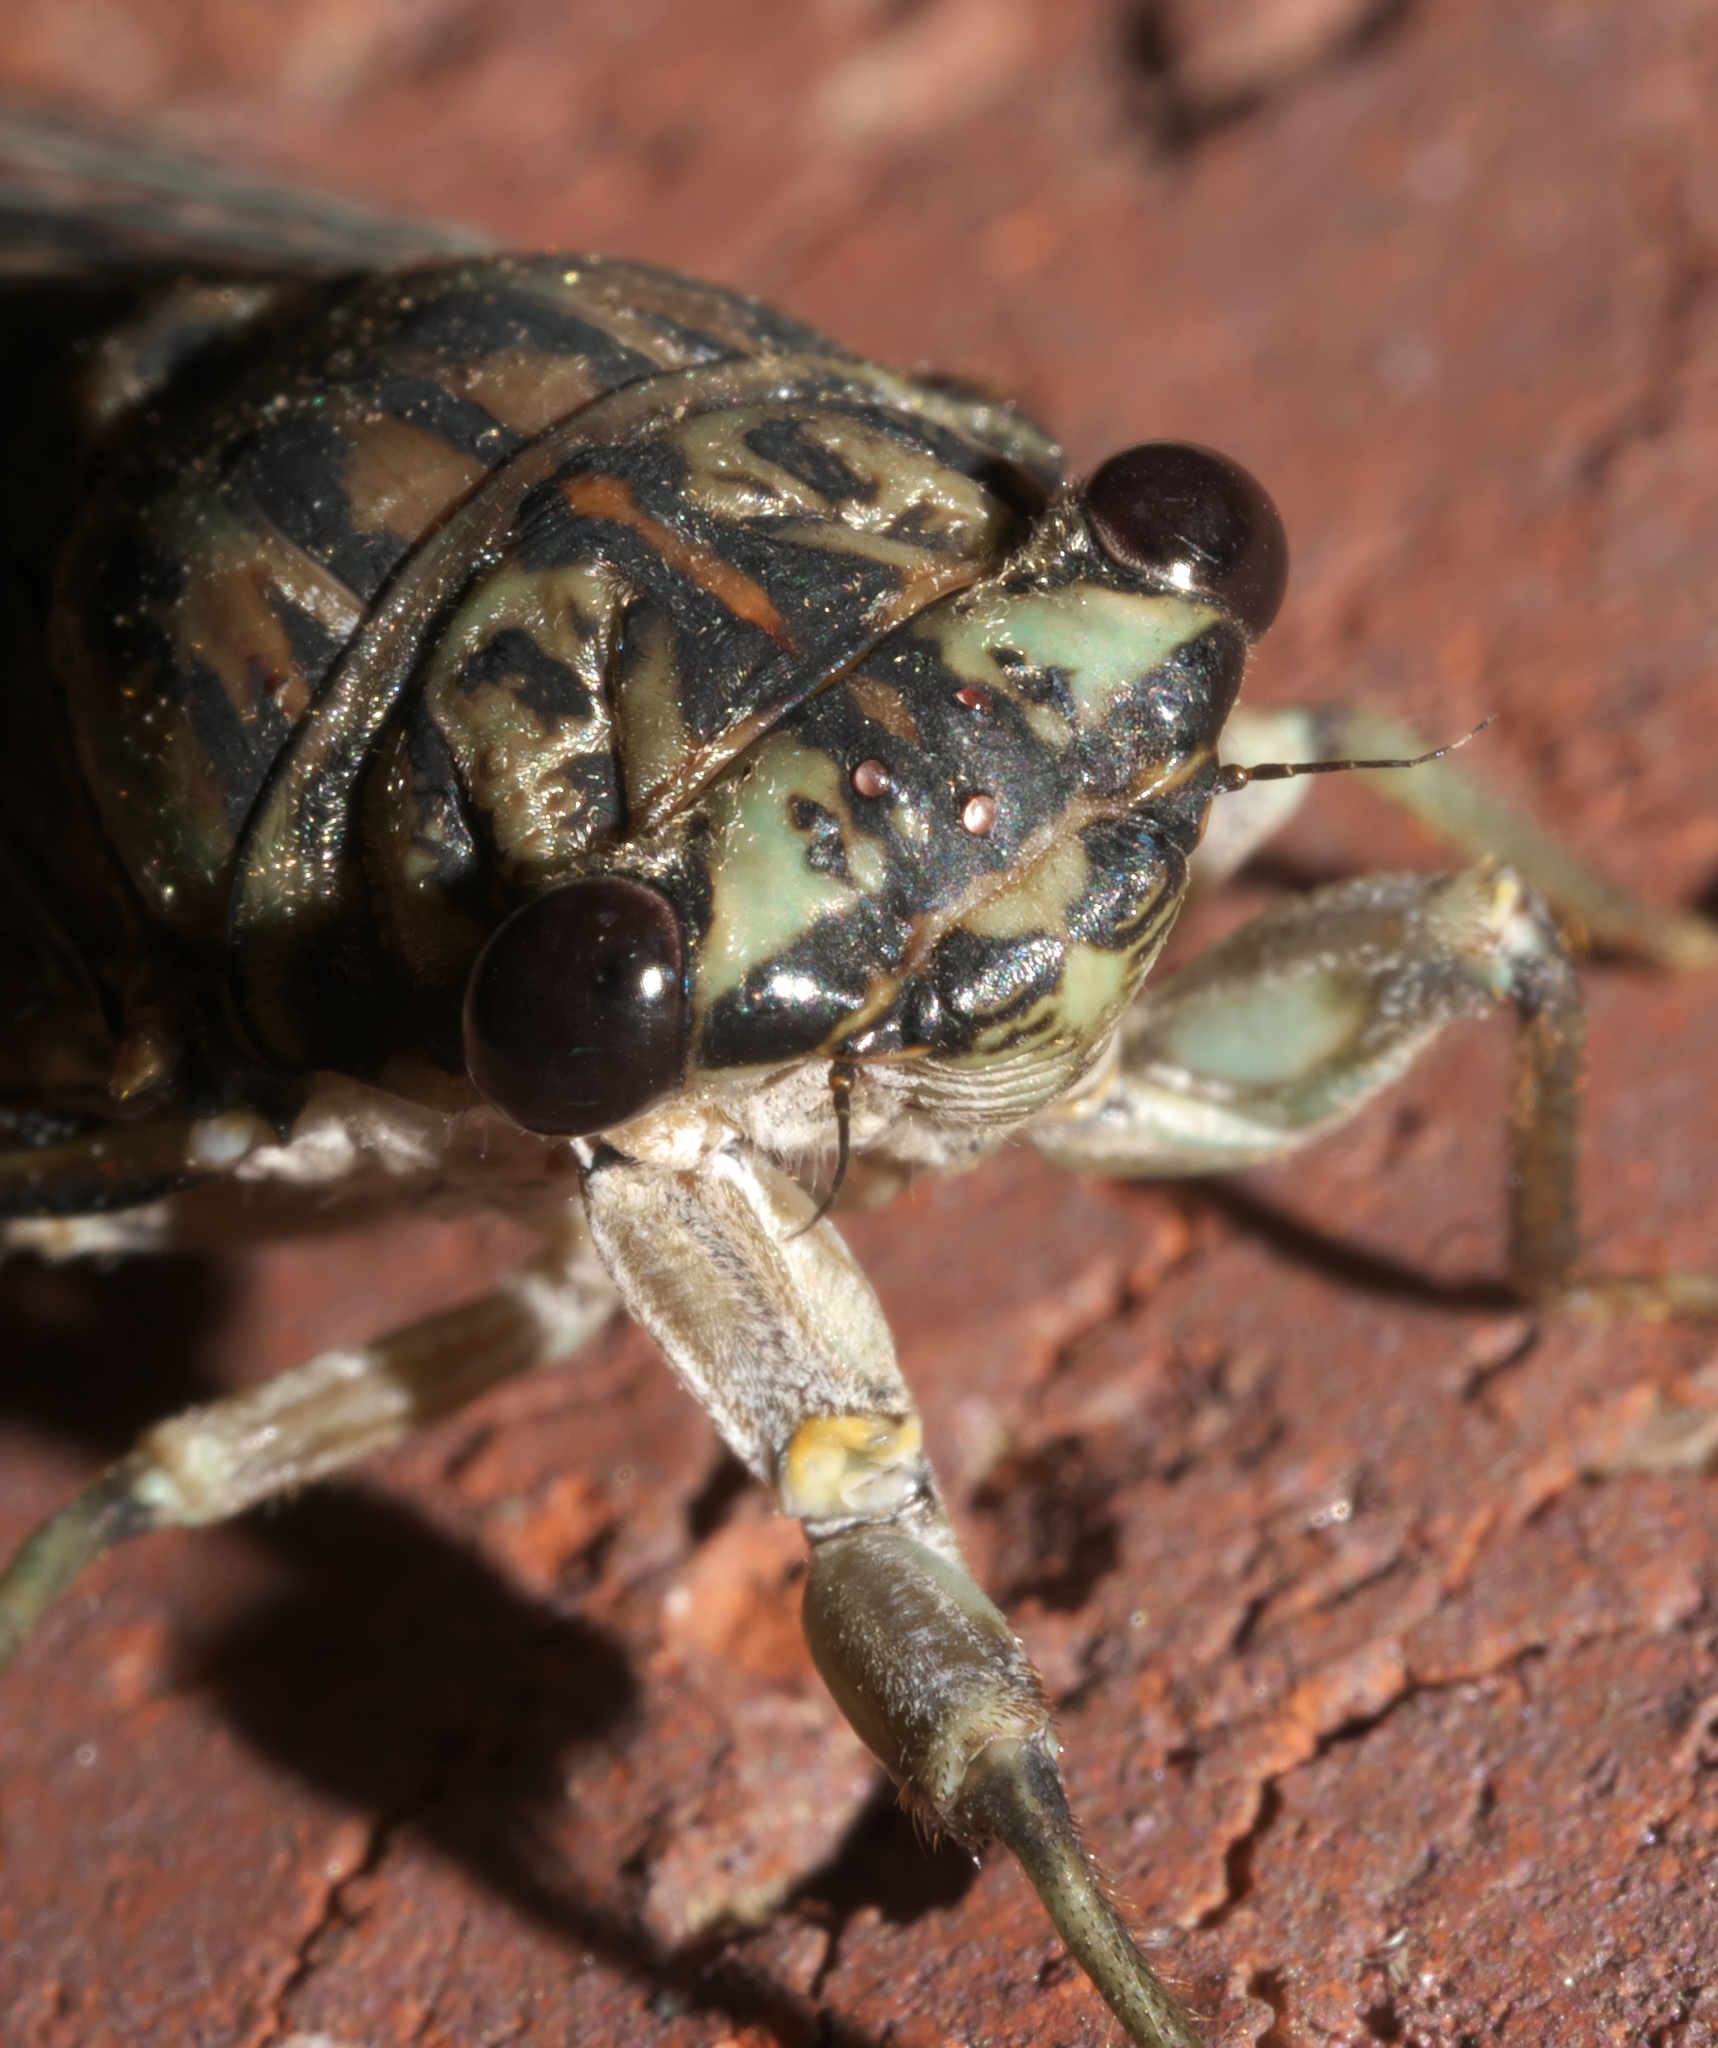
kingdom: Animalia
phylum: Arthropoda
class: Insecta
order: Hemiptera
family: Cicadidae
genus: Neocicada
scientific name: Neocicada hieroglyphica
